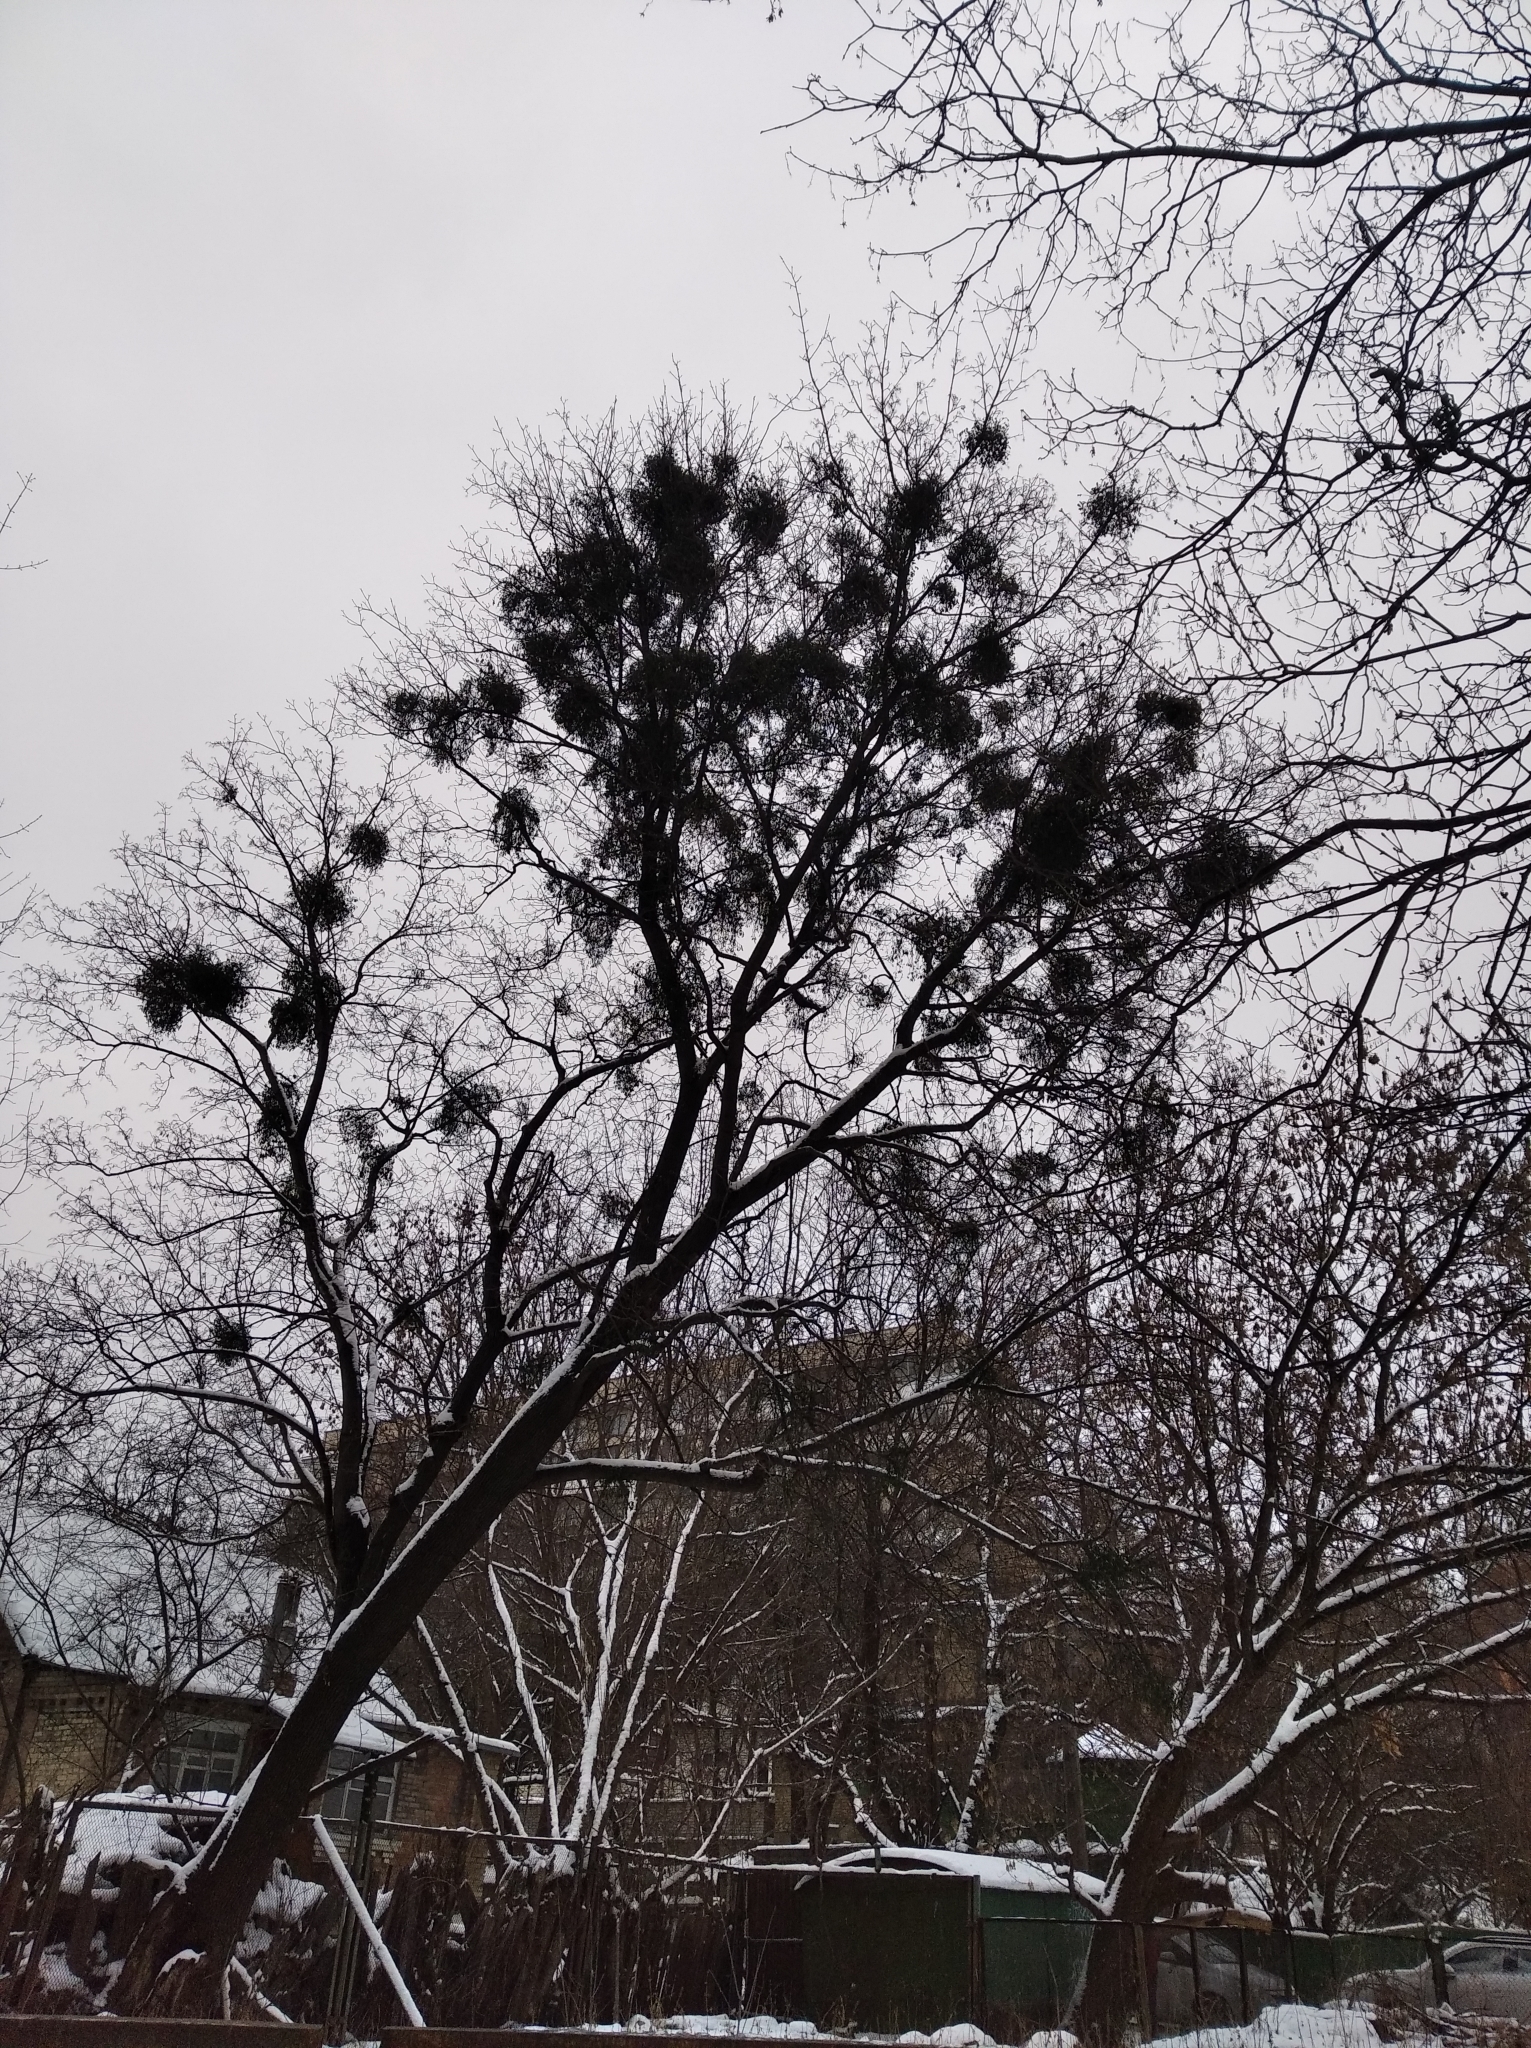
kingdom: Plantae
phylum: Tracheophyta
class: Magnoliopsida
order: Santalales
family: Viscaceae
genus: Viscum
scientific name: Viscum album
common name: Mistletoe
